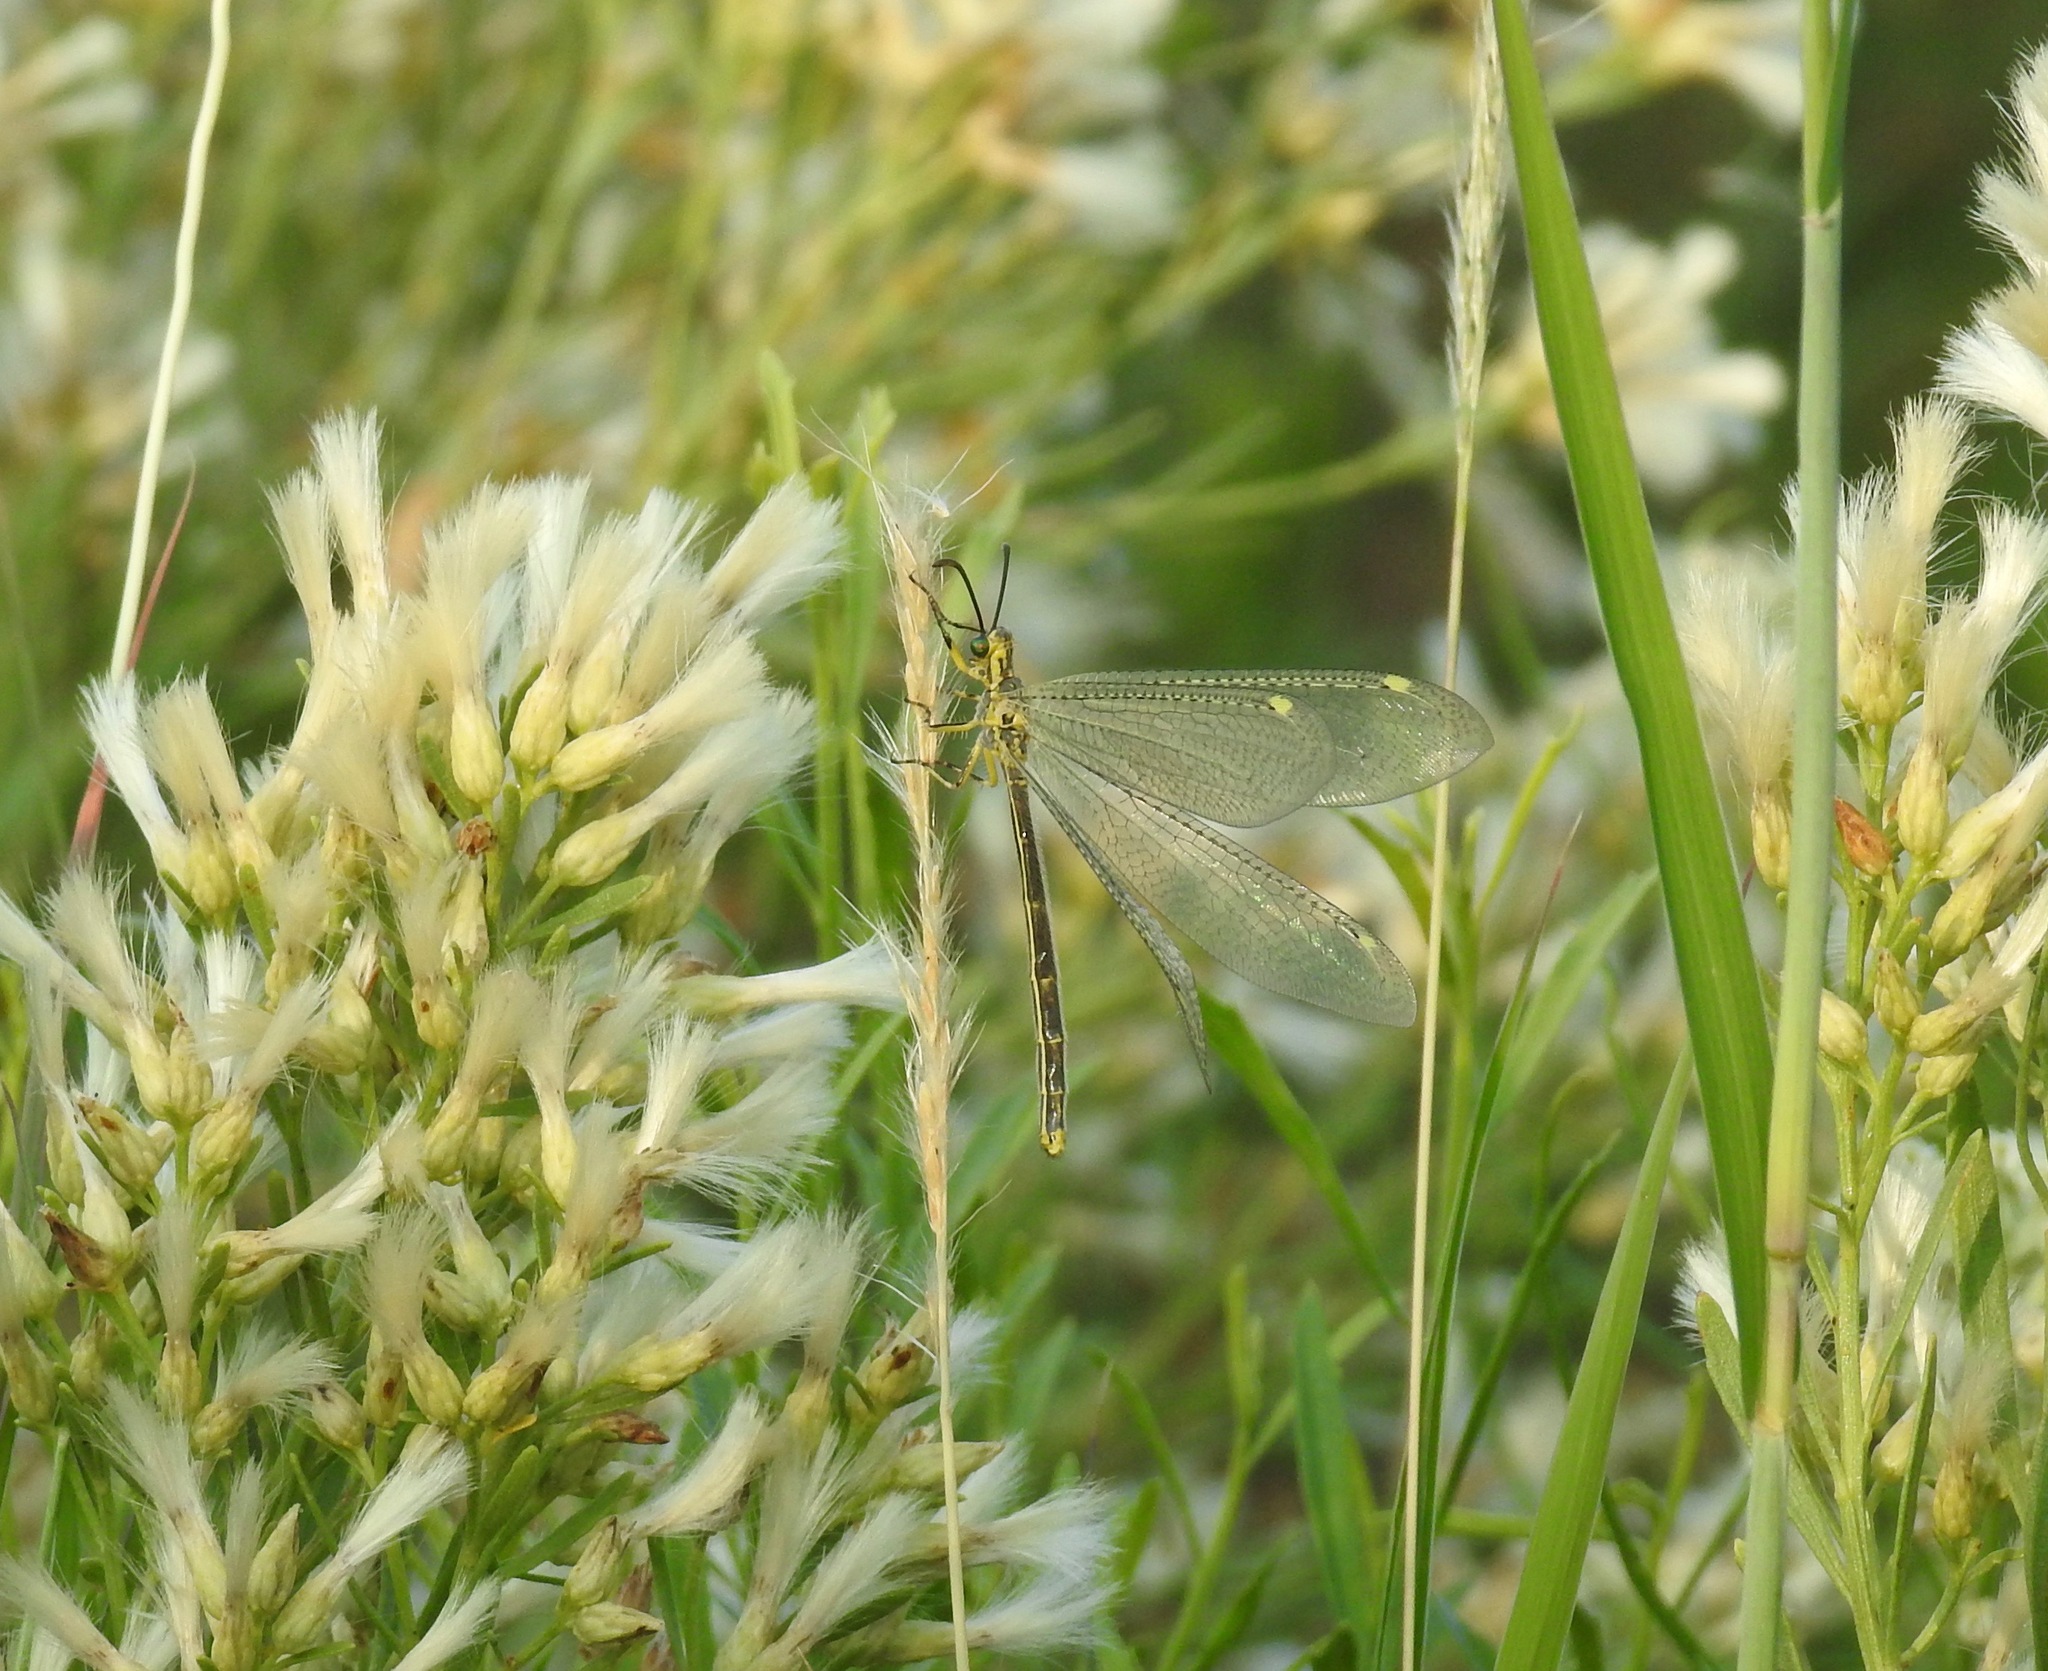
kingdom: Animalia
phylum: Arthropoda
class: Insecta
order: Neuroptera
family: Myrmeleontidae
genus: Scotoleon
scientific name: Scotoleon nigrilabris
